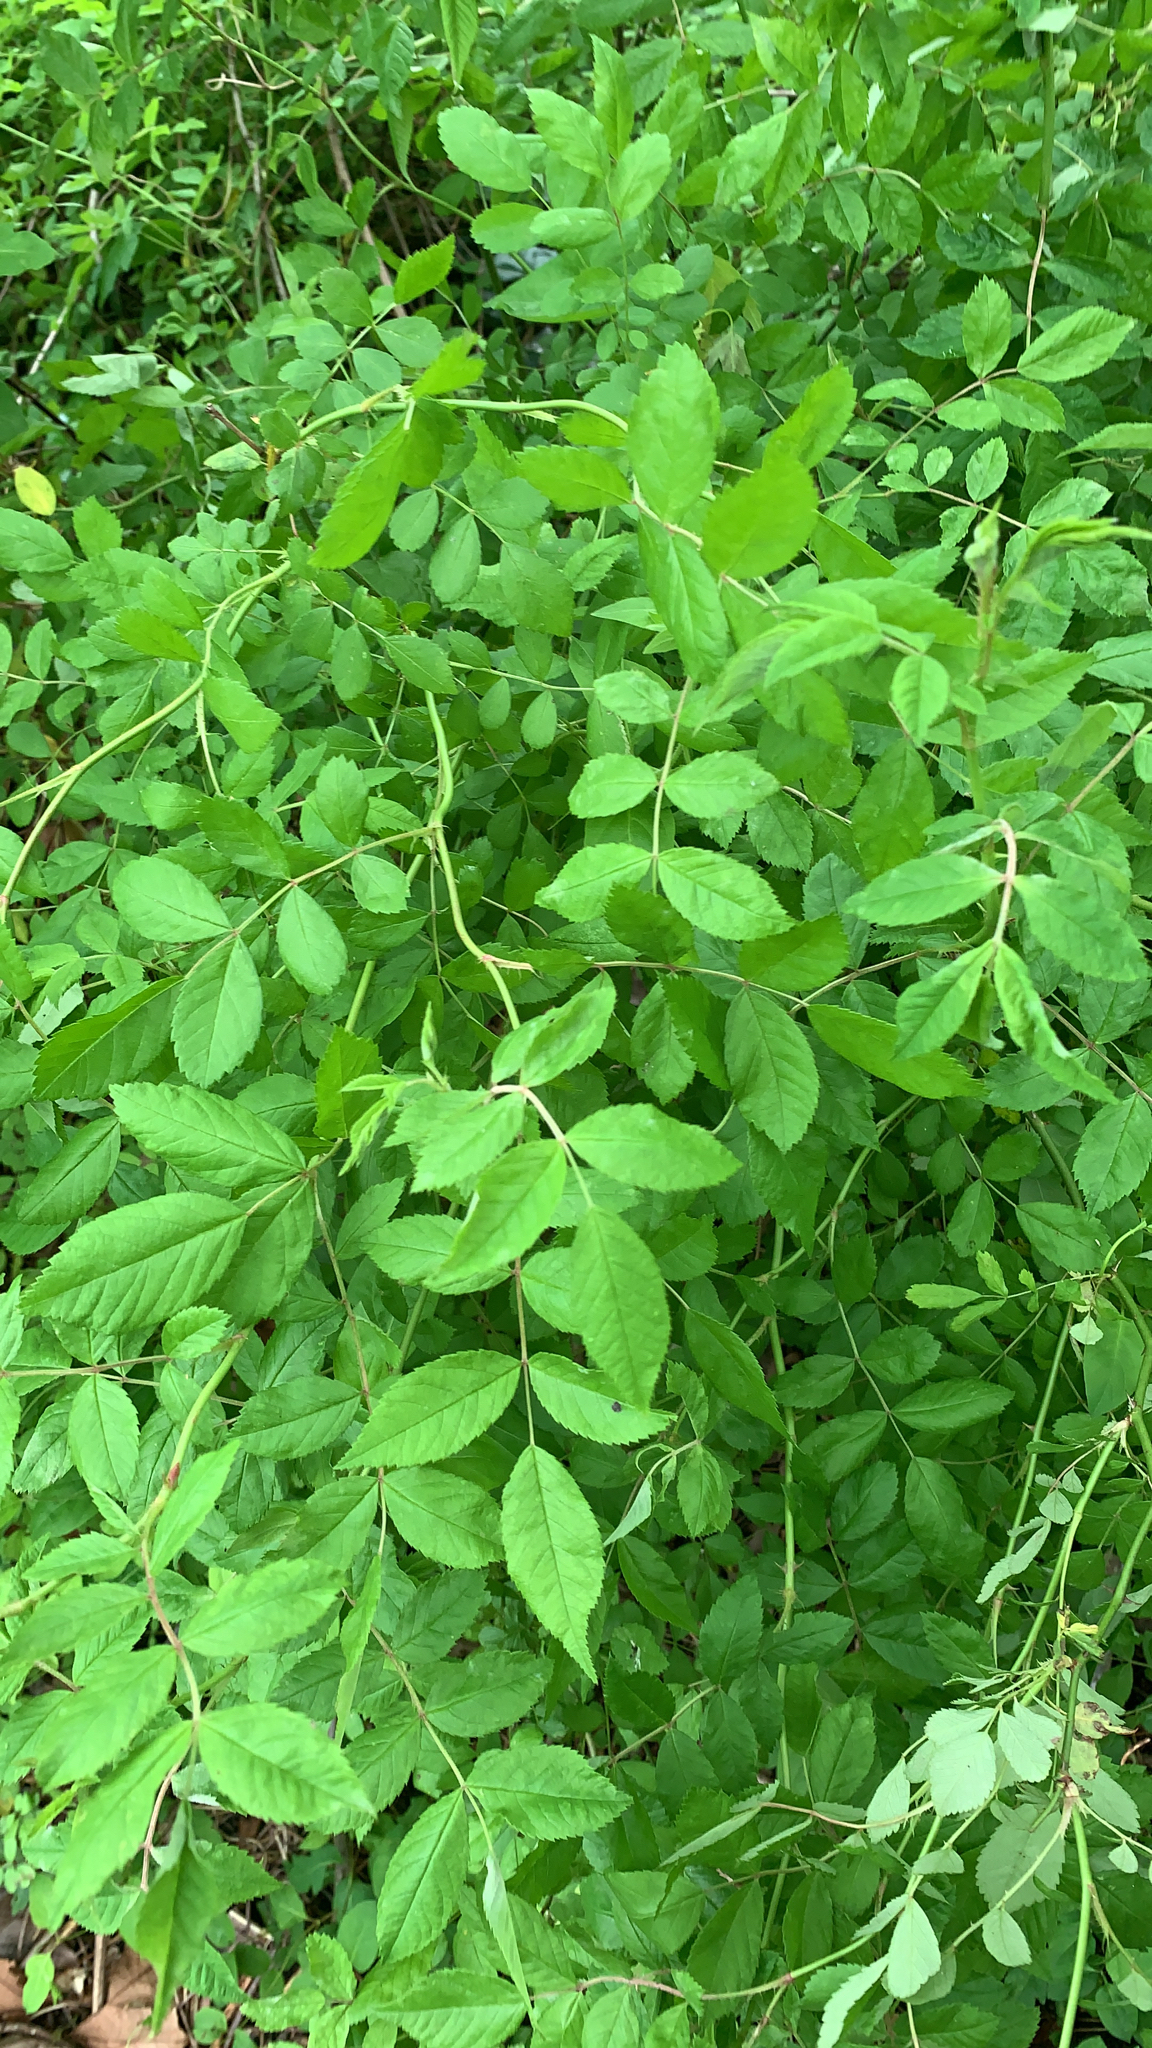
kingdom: Plantae
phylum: Tracheophyta
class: Magnoliopsida
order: Rosales
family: Rosaceae
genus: Rosa
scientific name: Rosa multiflora
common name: Multiflora rose
